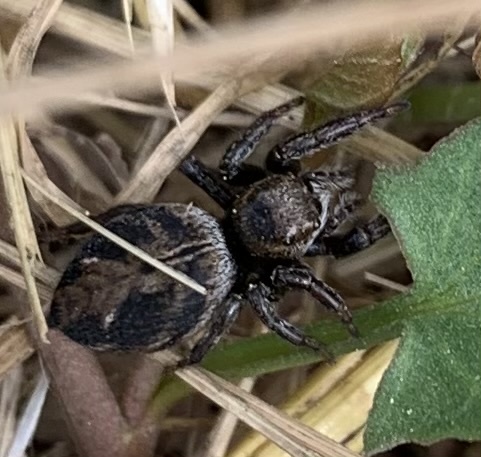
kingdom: Animalia
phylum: Arthropoda
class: Arachnida
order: Araneae
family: Salticidae
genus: Evarcha
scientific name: Evarcha arcuata
